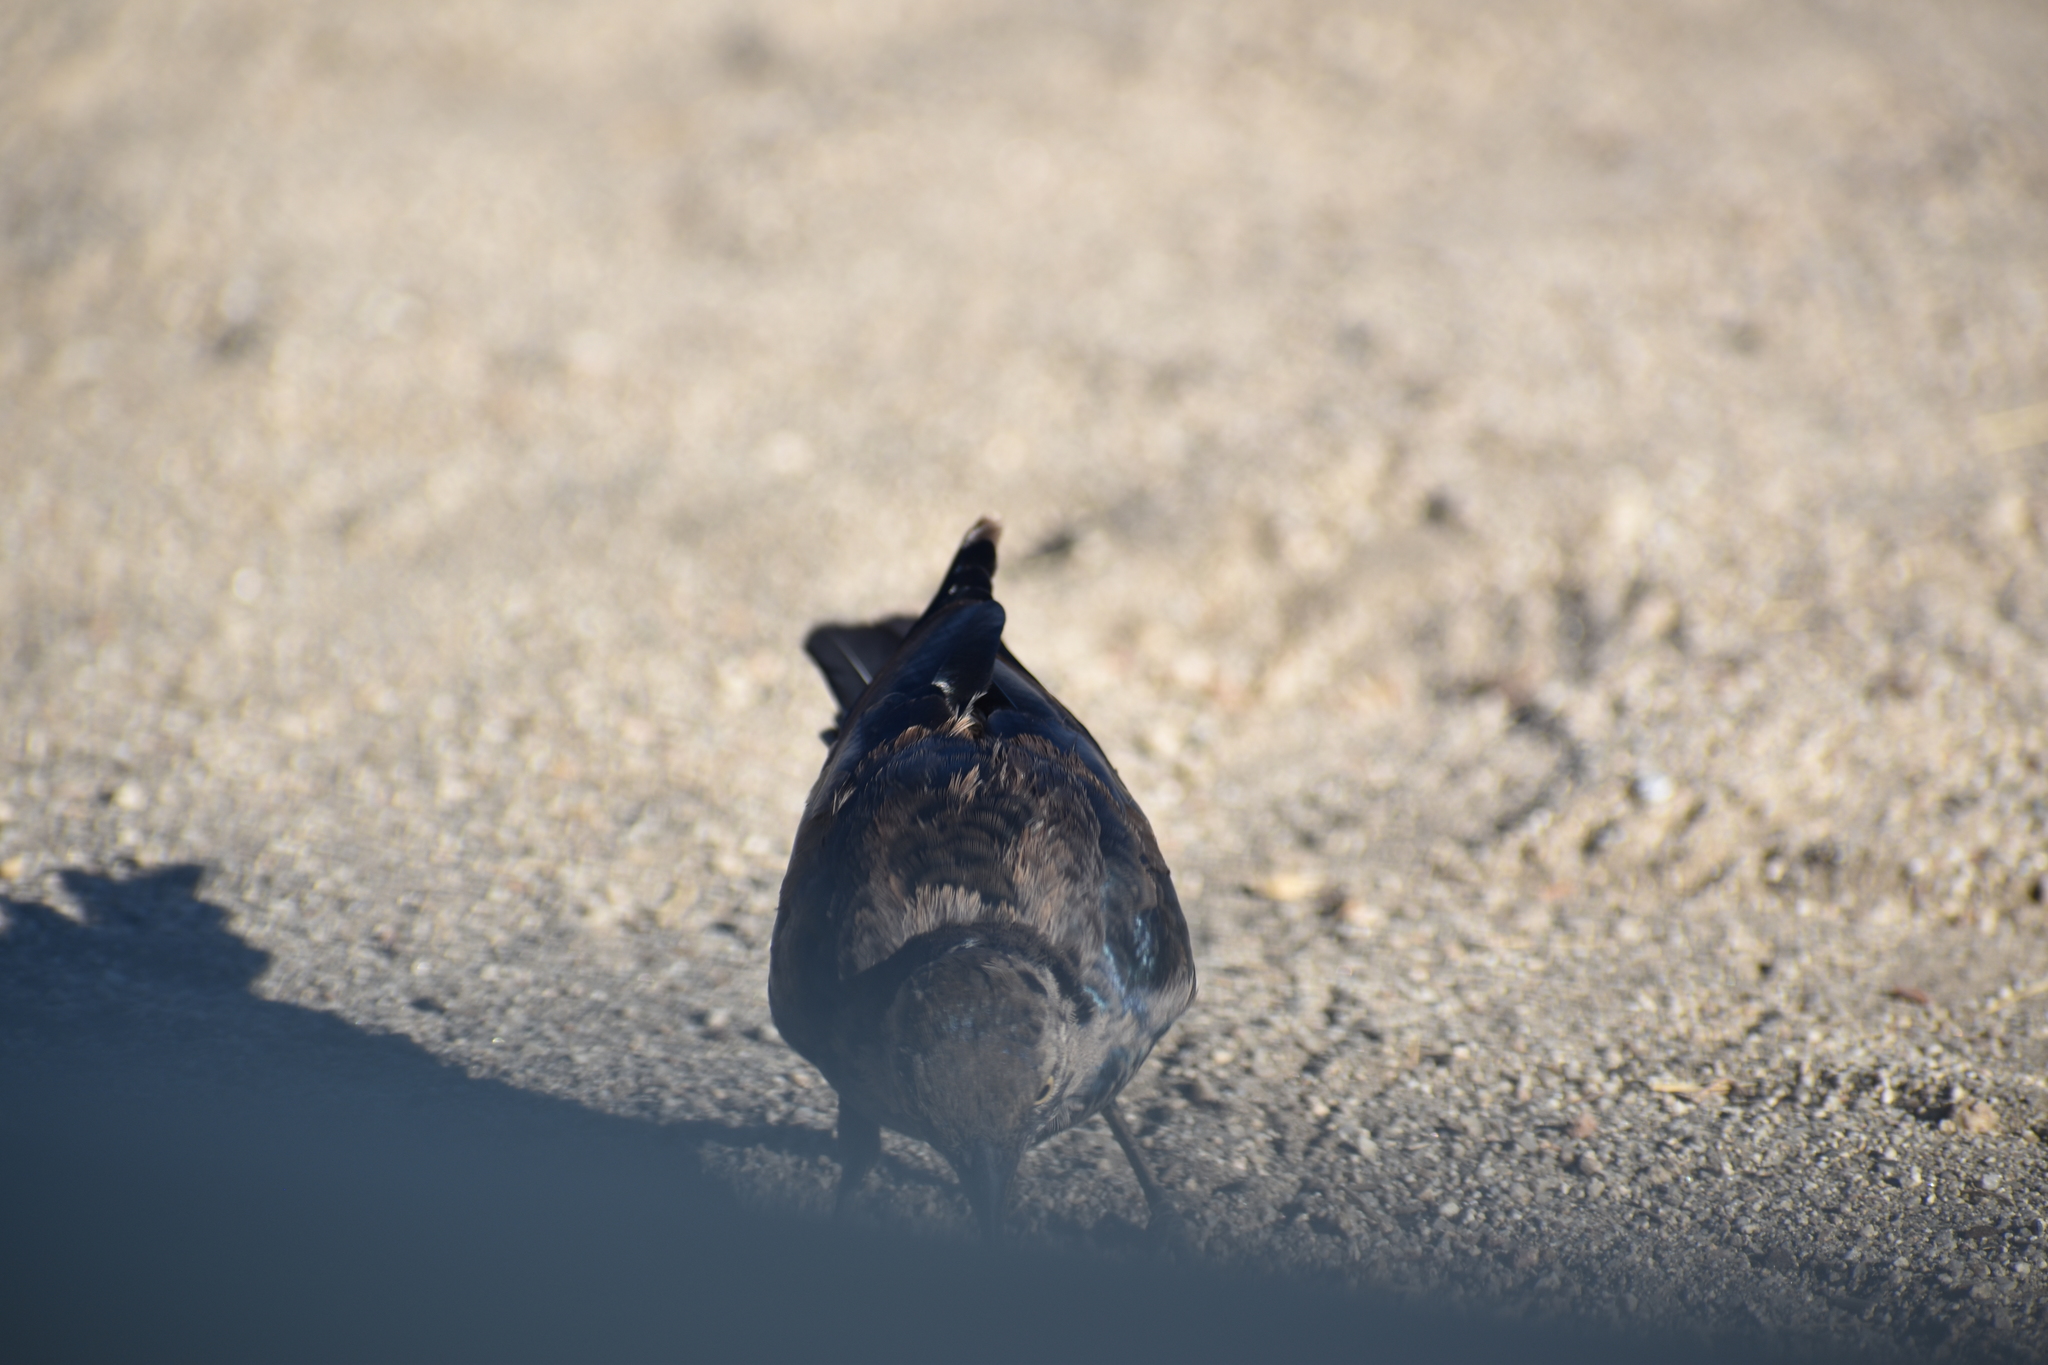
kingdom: Animalia
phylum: Chordata
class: Aves
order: Passeriformes
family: Icteridae
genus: Euphagus
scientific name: Euphagus cyanocephalus
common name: Brewer's blackbird
